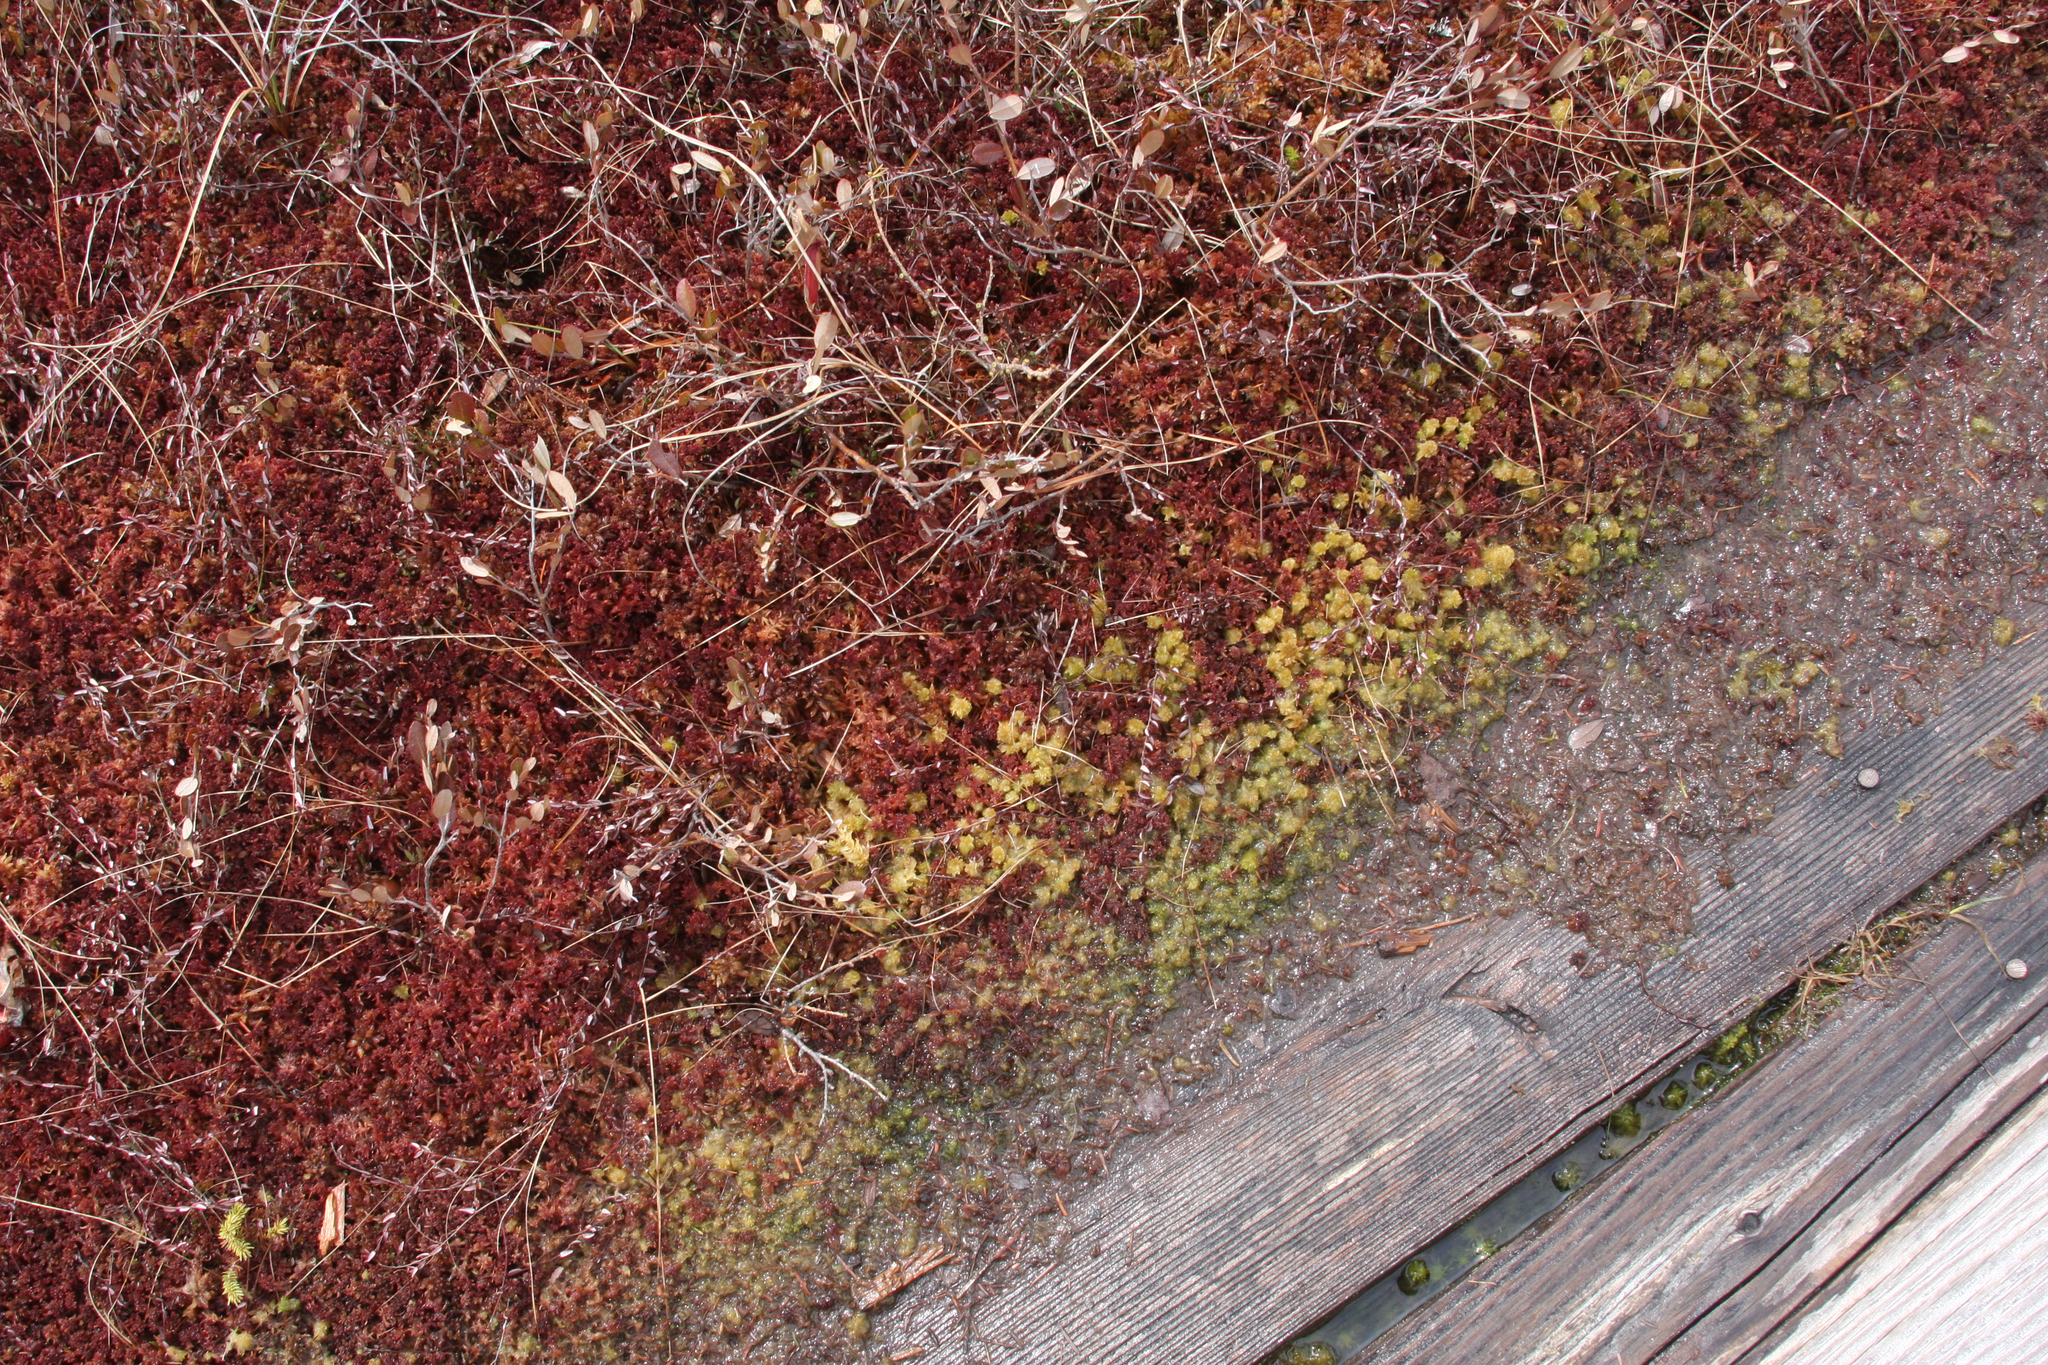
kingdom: Plantae
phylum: Bryophyta
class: Sphagnopsida
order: Sphagnales
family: Sphagnaceae
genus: Sphagnum
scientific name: Sphagnum medium
